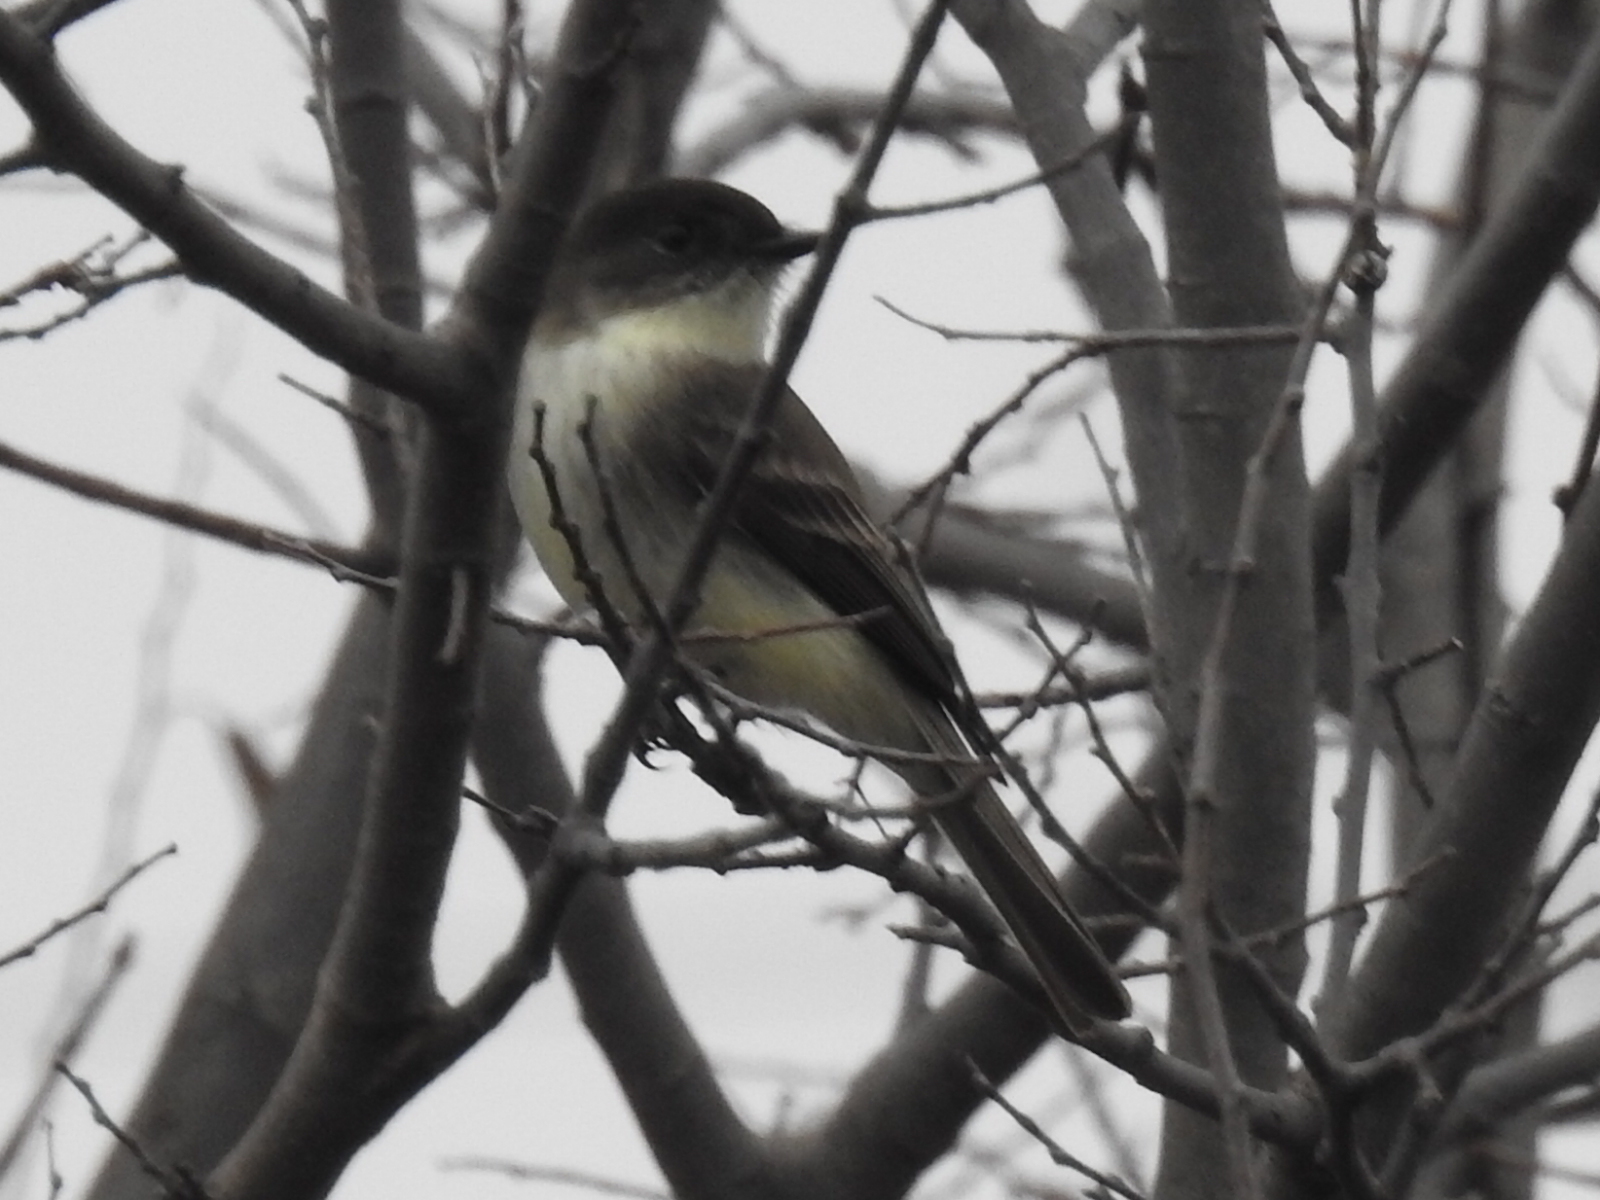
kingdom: Animalia
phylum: Chordata
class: Aves
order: Passeriformes
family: Tyrannidae
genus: Sayornis
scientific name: Sayornis phoebe
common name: Eastern phoebe
